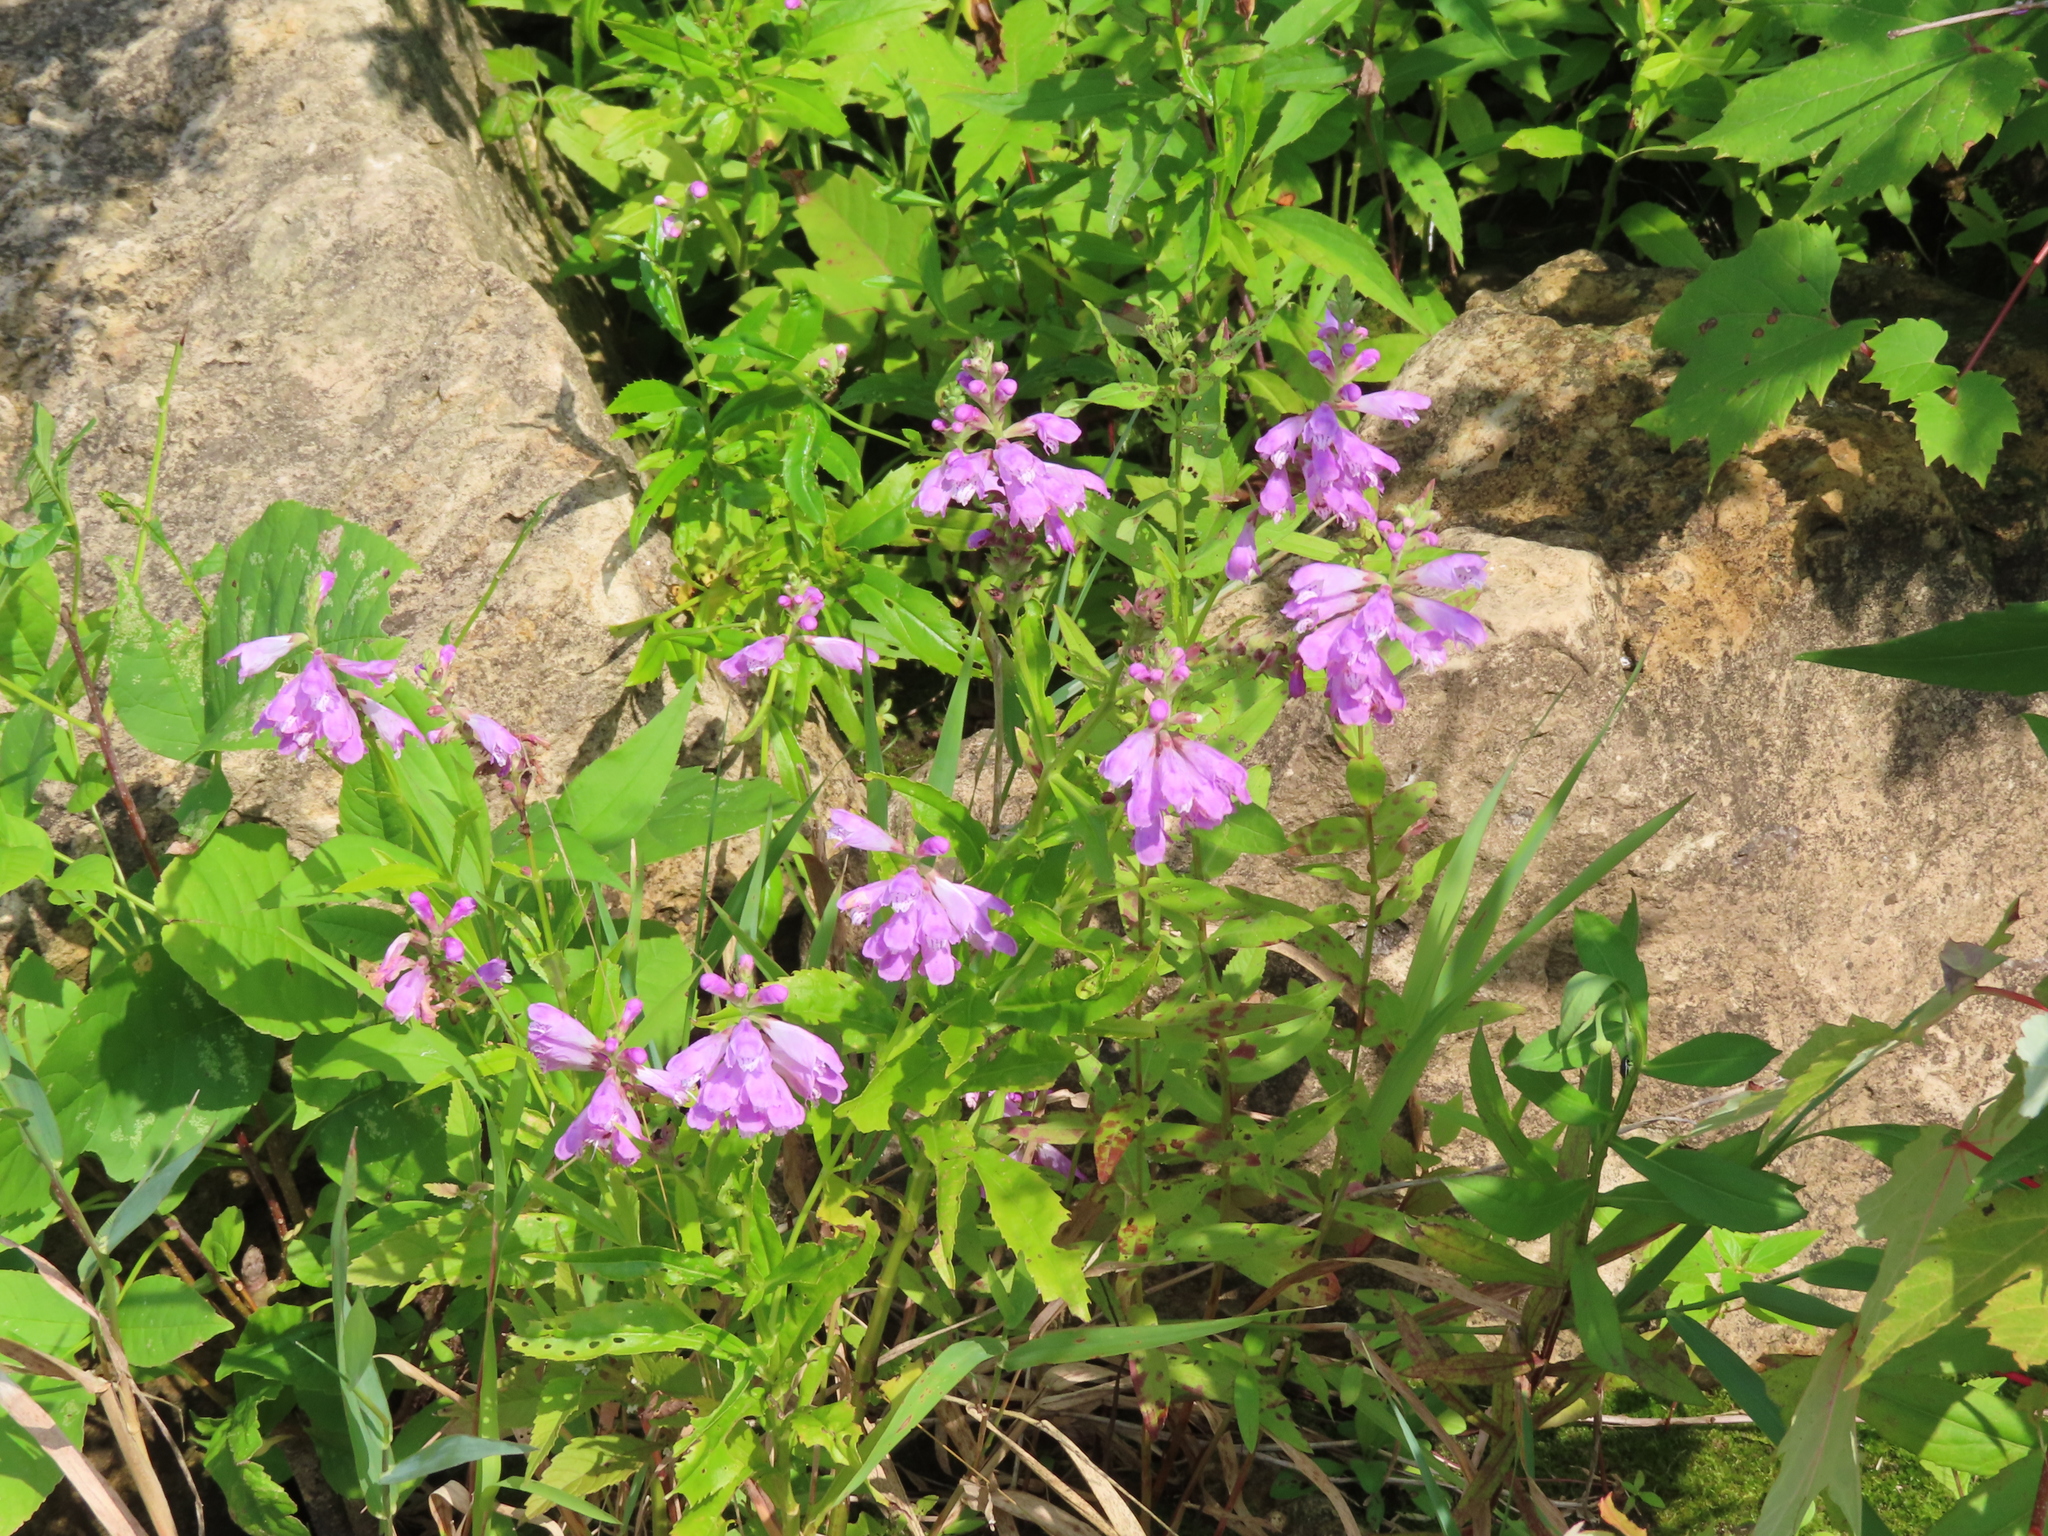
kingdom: Plantae
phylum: Tracheophyta
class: Magnoliopsida
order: Lamiales
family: Lamiaceae
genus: Physostegia
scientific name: Physostegia virginiana
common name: Obedient-plant
